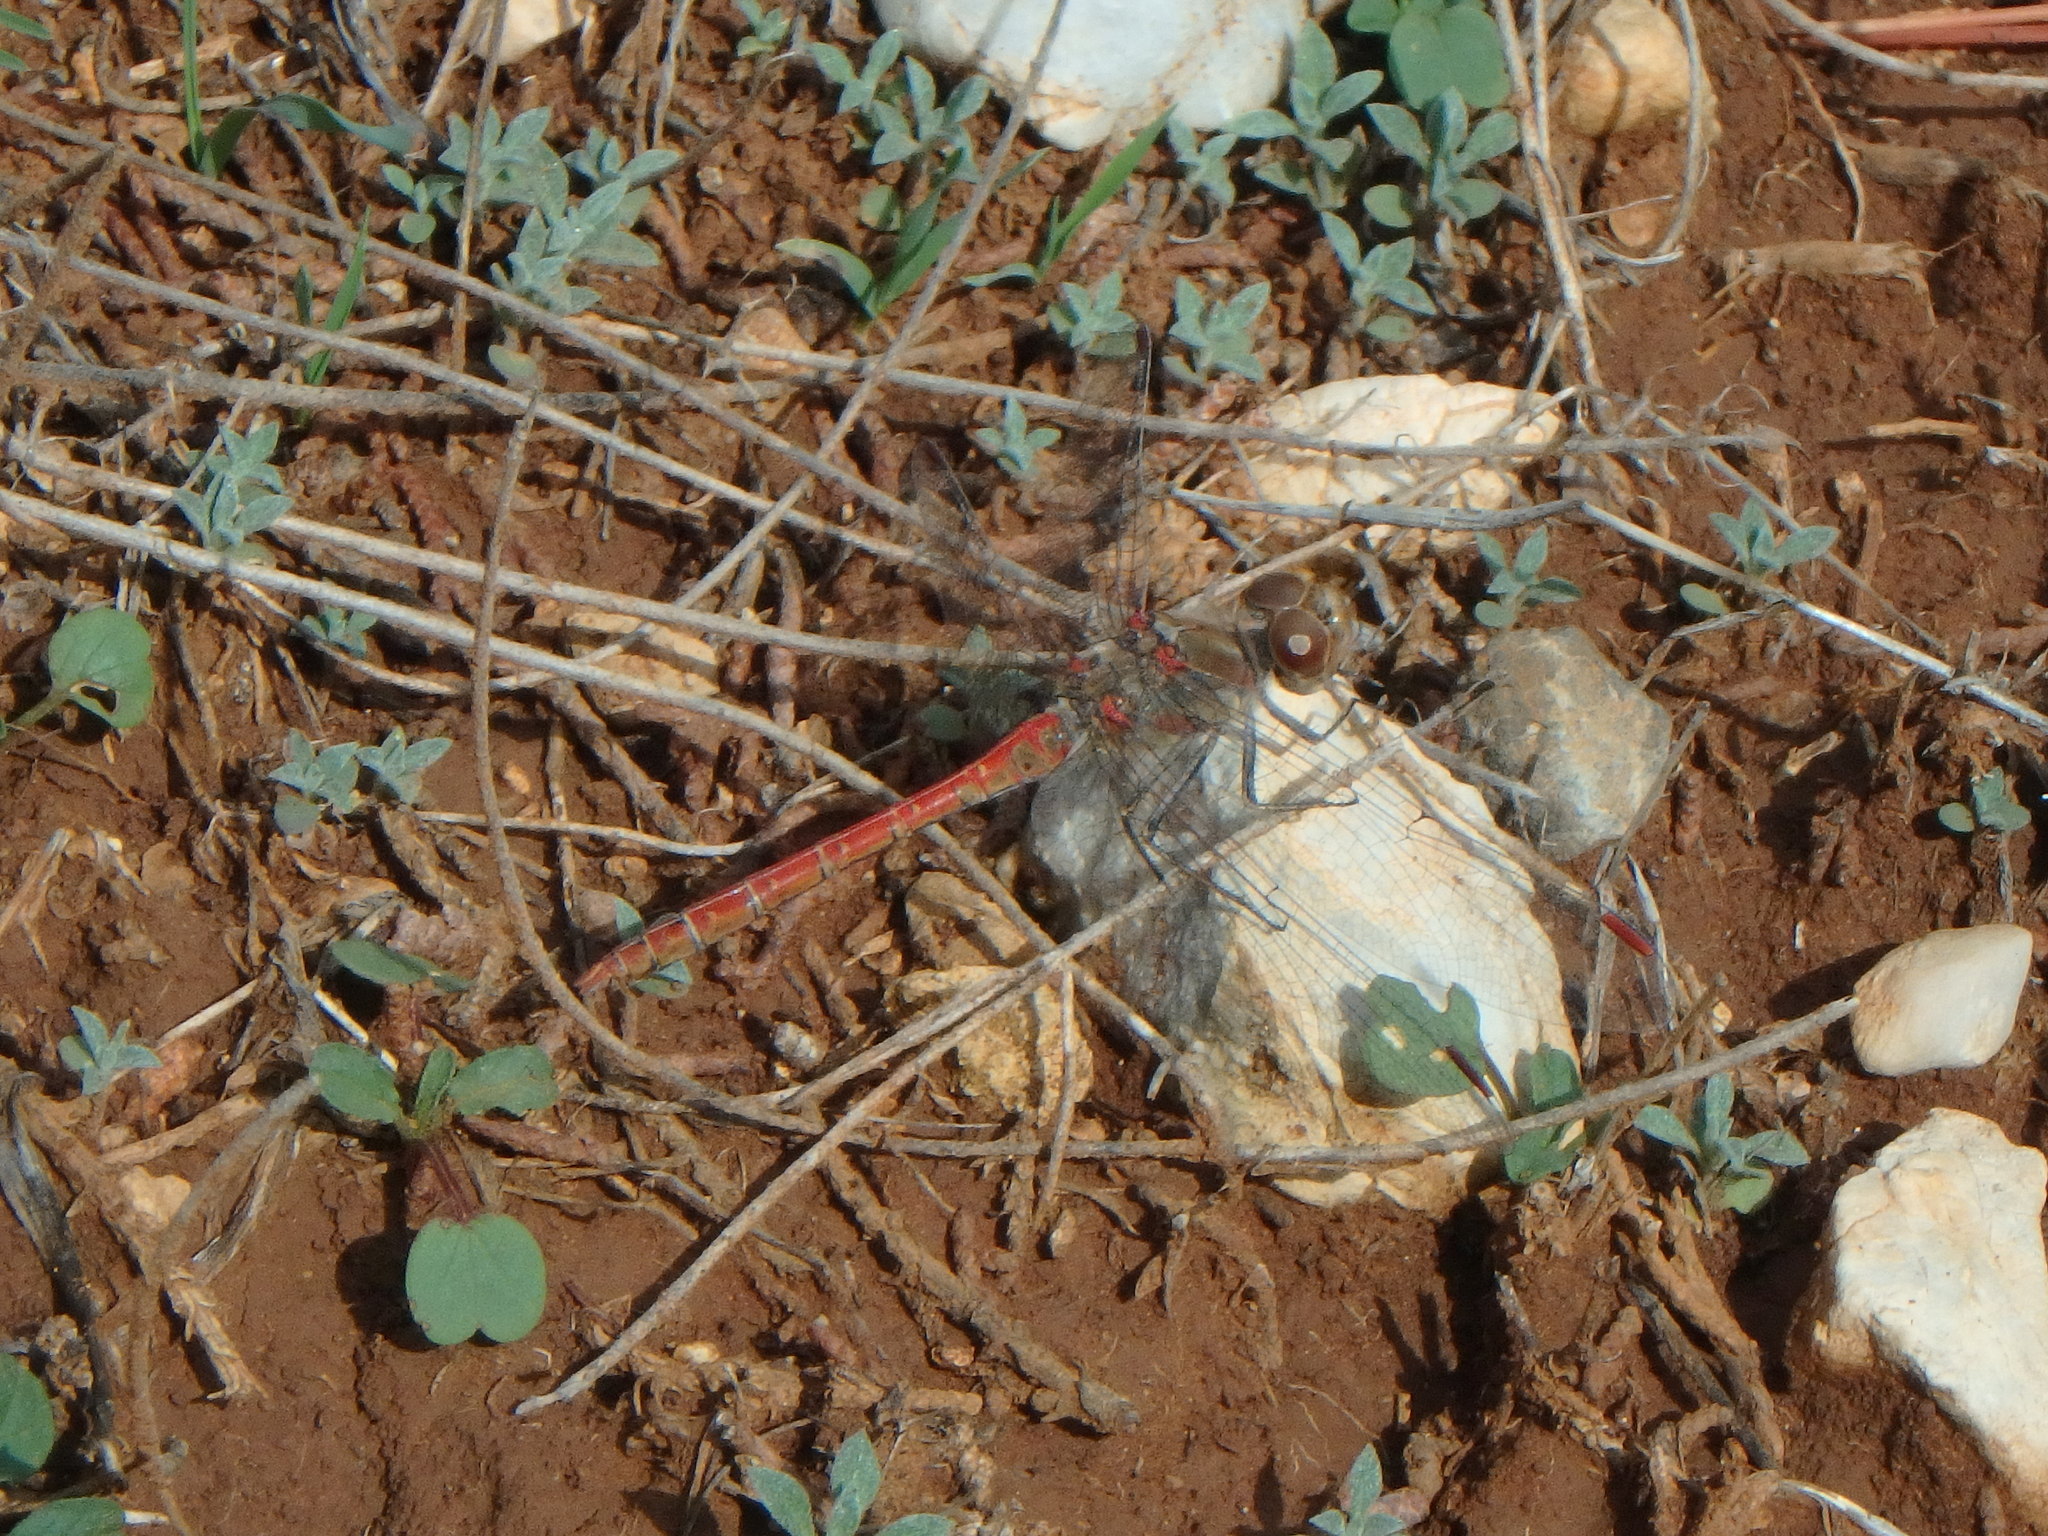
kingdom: Animalia
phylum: Arthropoda
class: Insecta
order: Odonata
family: Libellulidae
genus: Sympetrum
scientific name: Sympetrum striolatum
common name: Common darter
